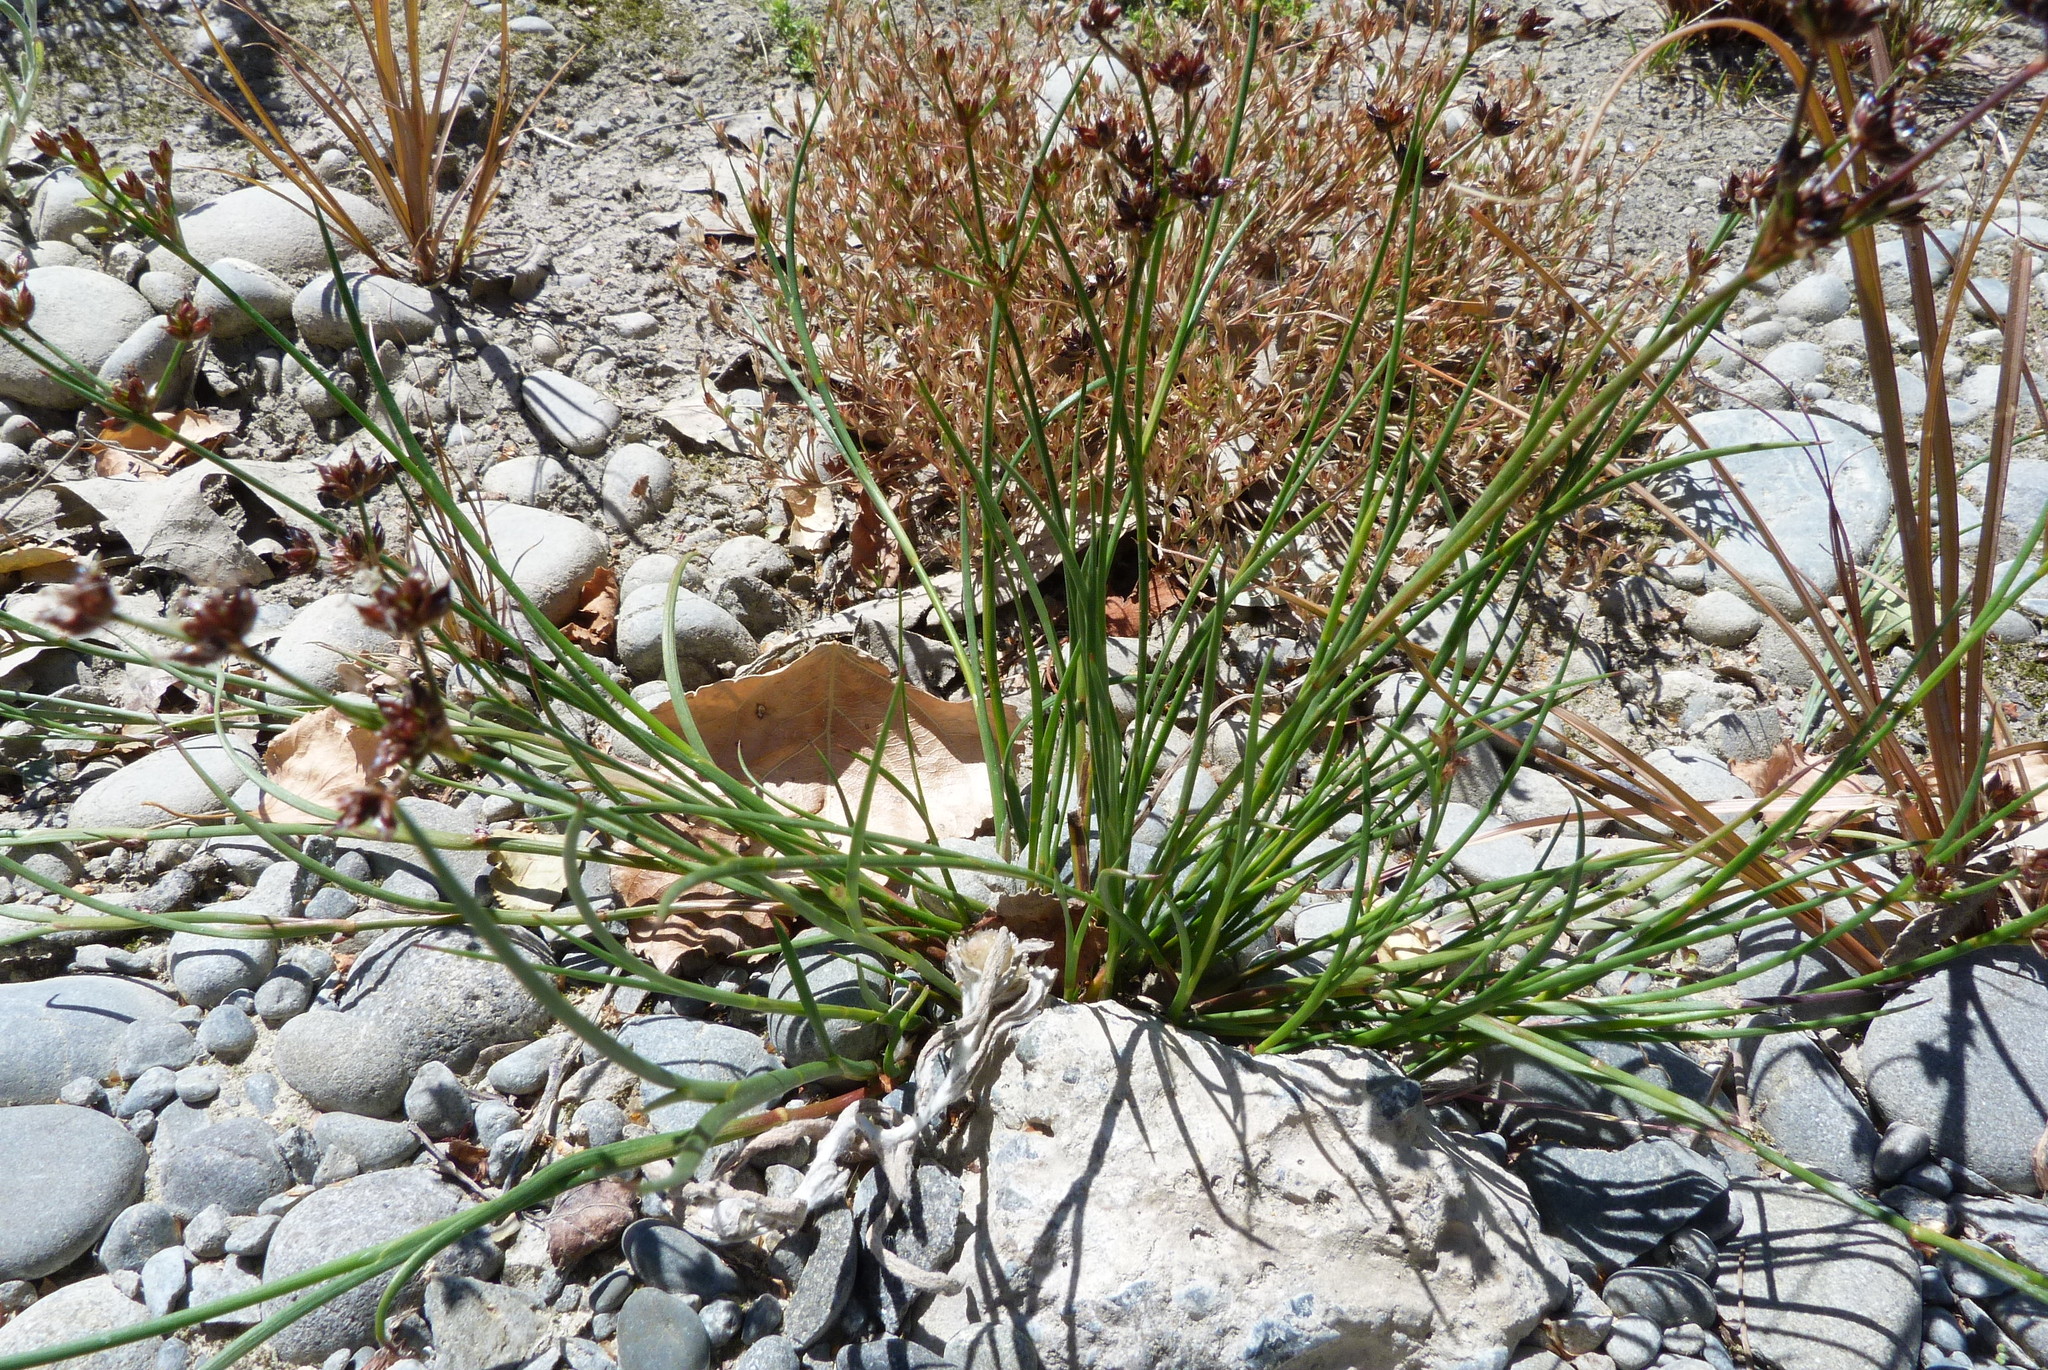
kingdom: Plantae
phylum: Tracheophyta
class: Liliopsida
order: Poales
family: Juncaceae
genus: Juncus
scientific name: Juncus articulatus
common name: Jointed rush
